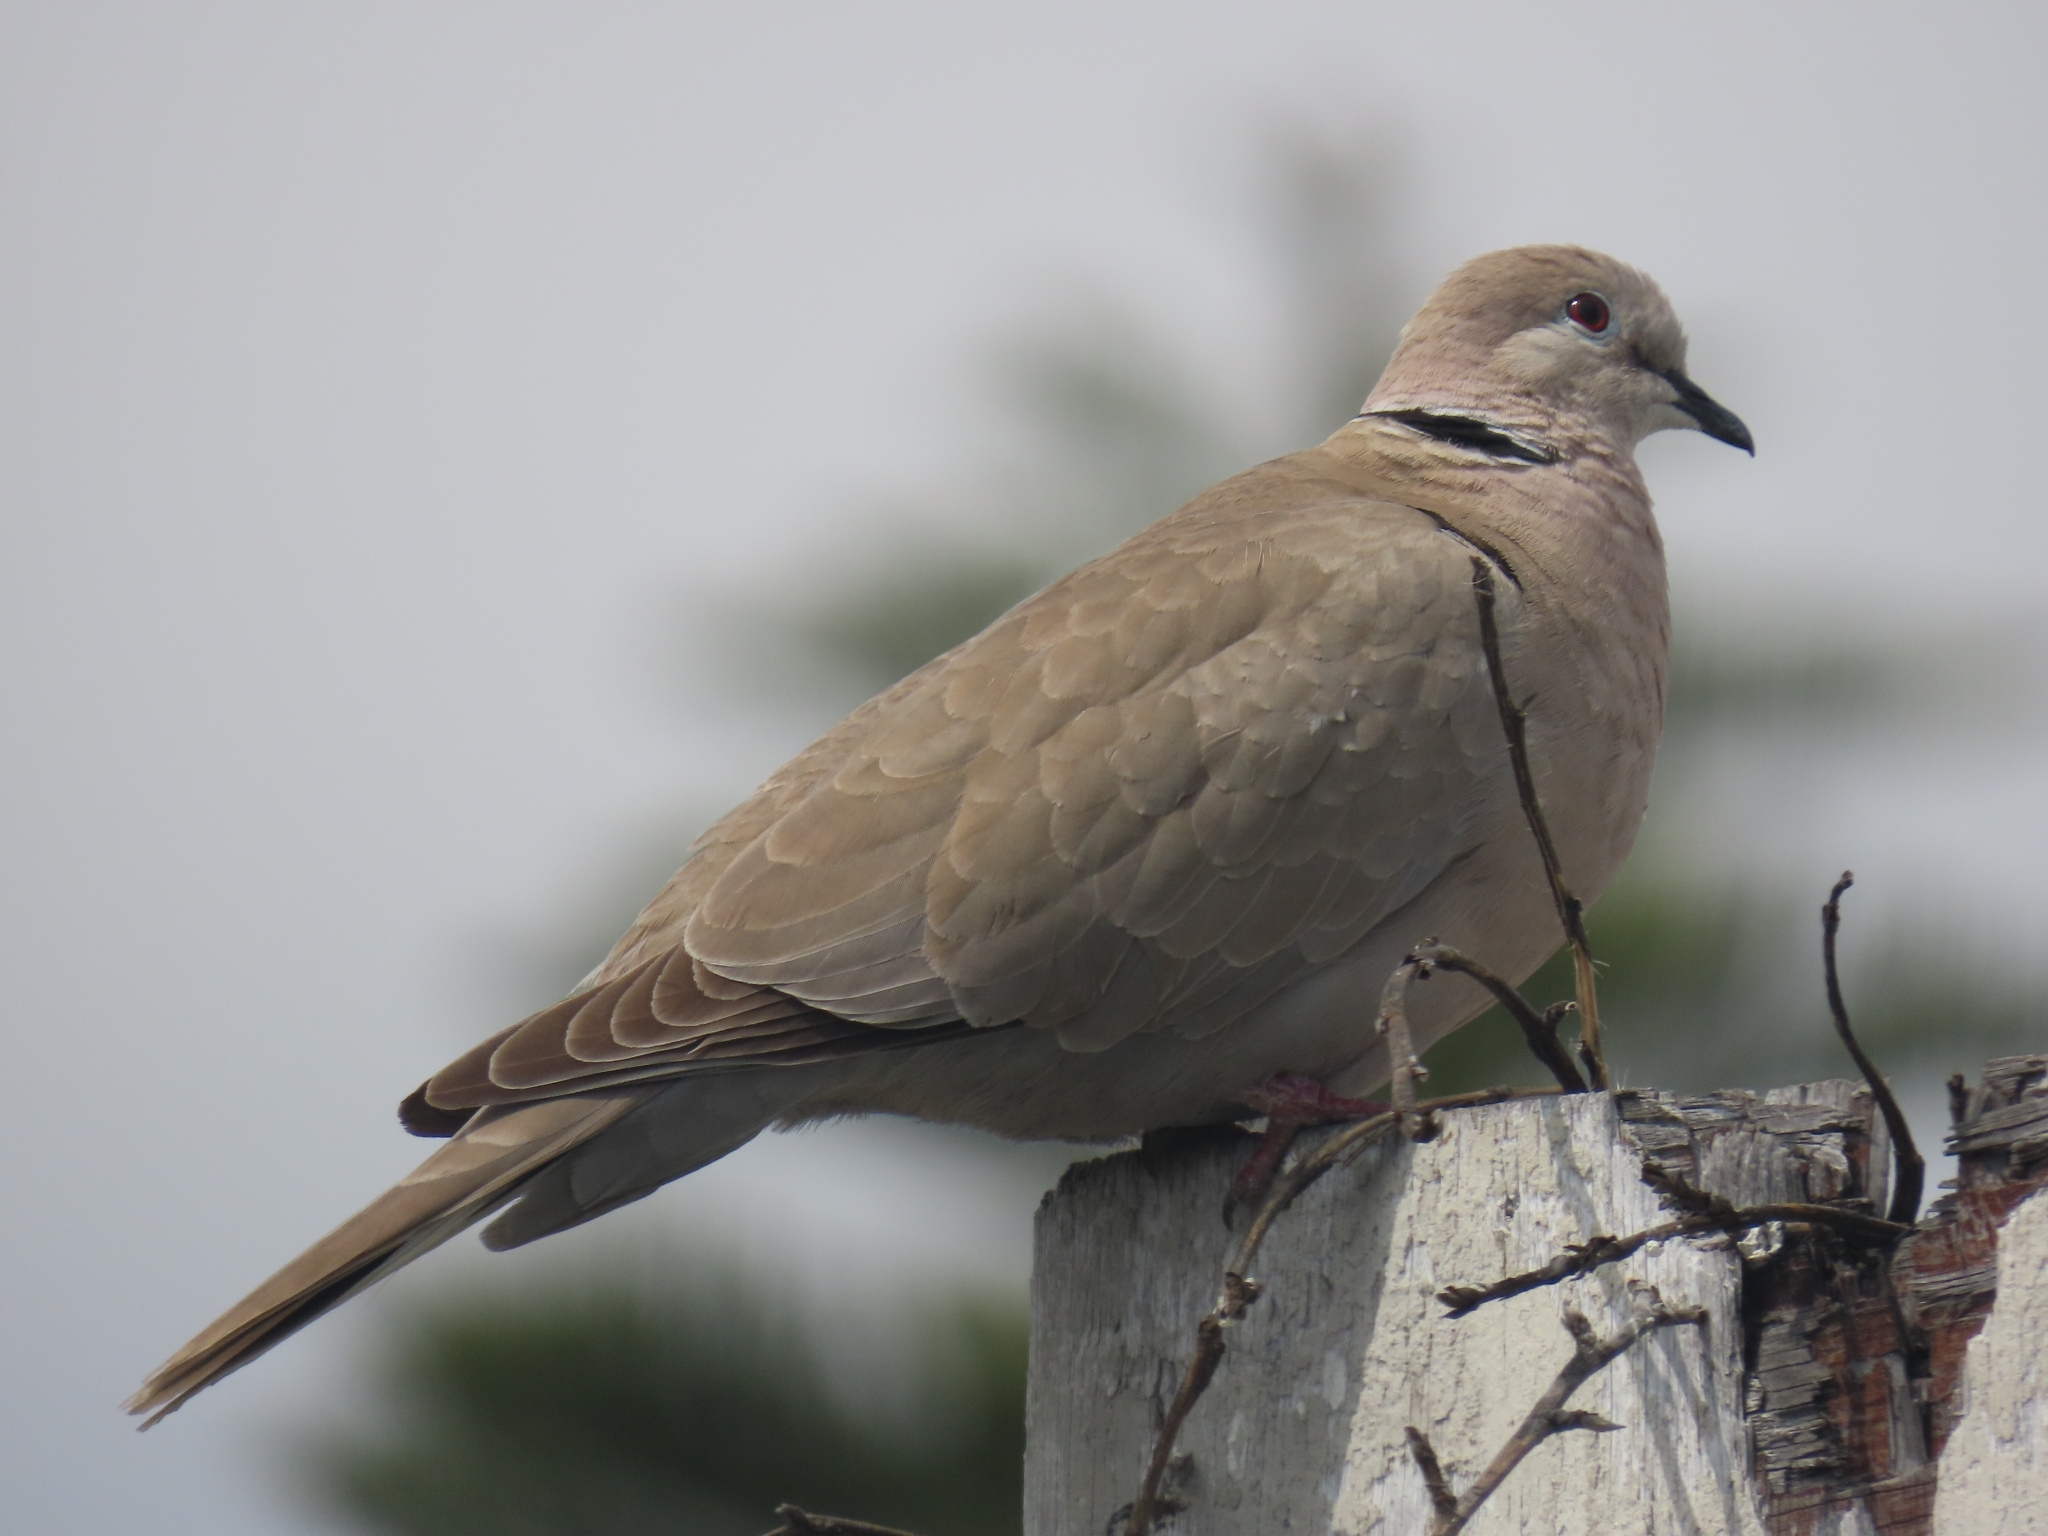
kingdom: Animalia
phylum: Chordata
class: Aves
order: Columbiformes
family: Columbidae
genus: Streptopelia
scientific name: Streptopelia decaocto
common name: Eurasian collared dove
